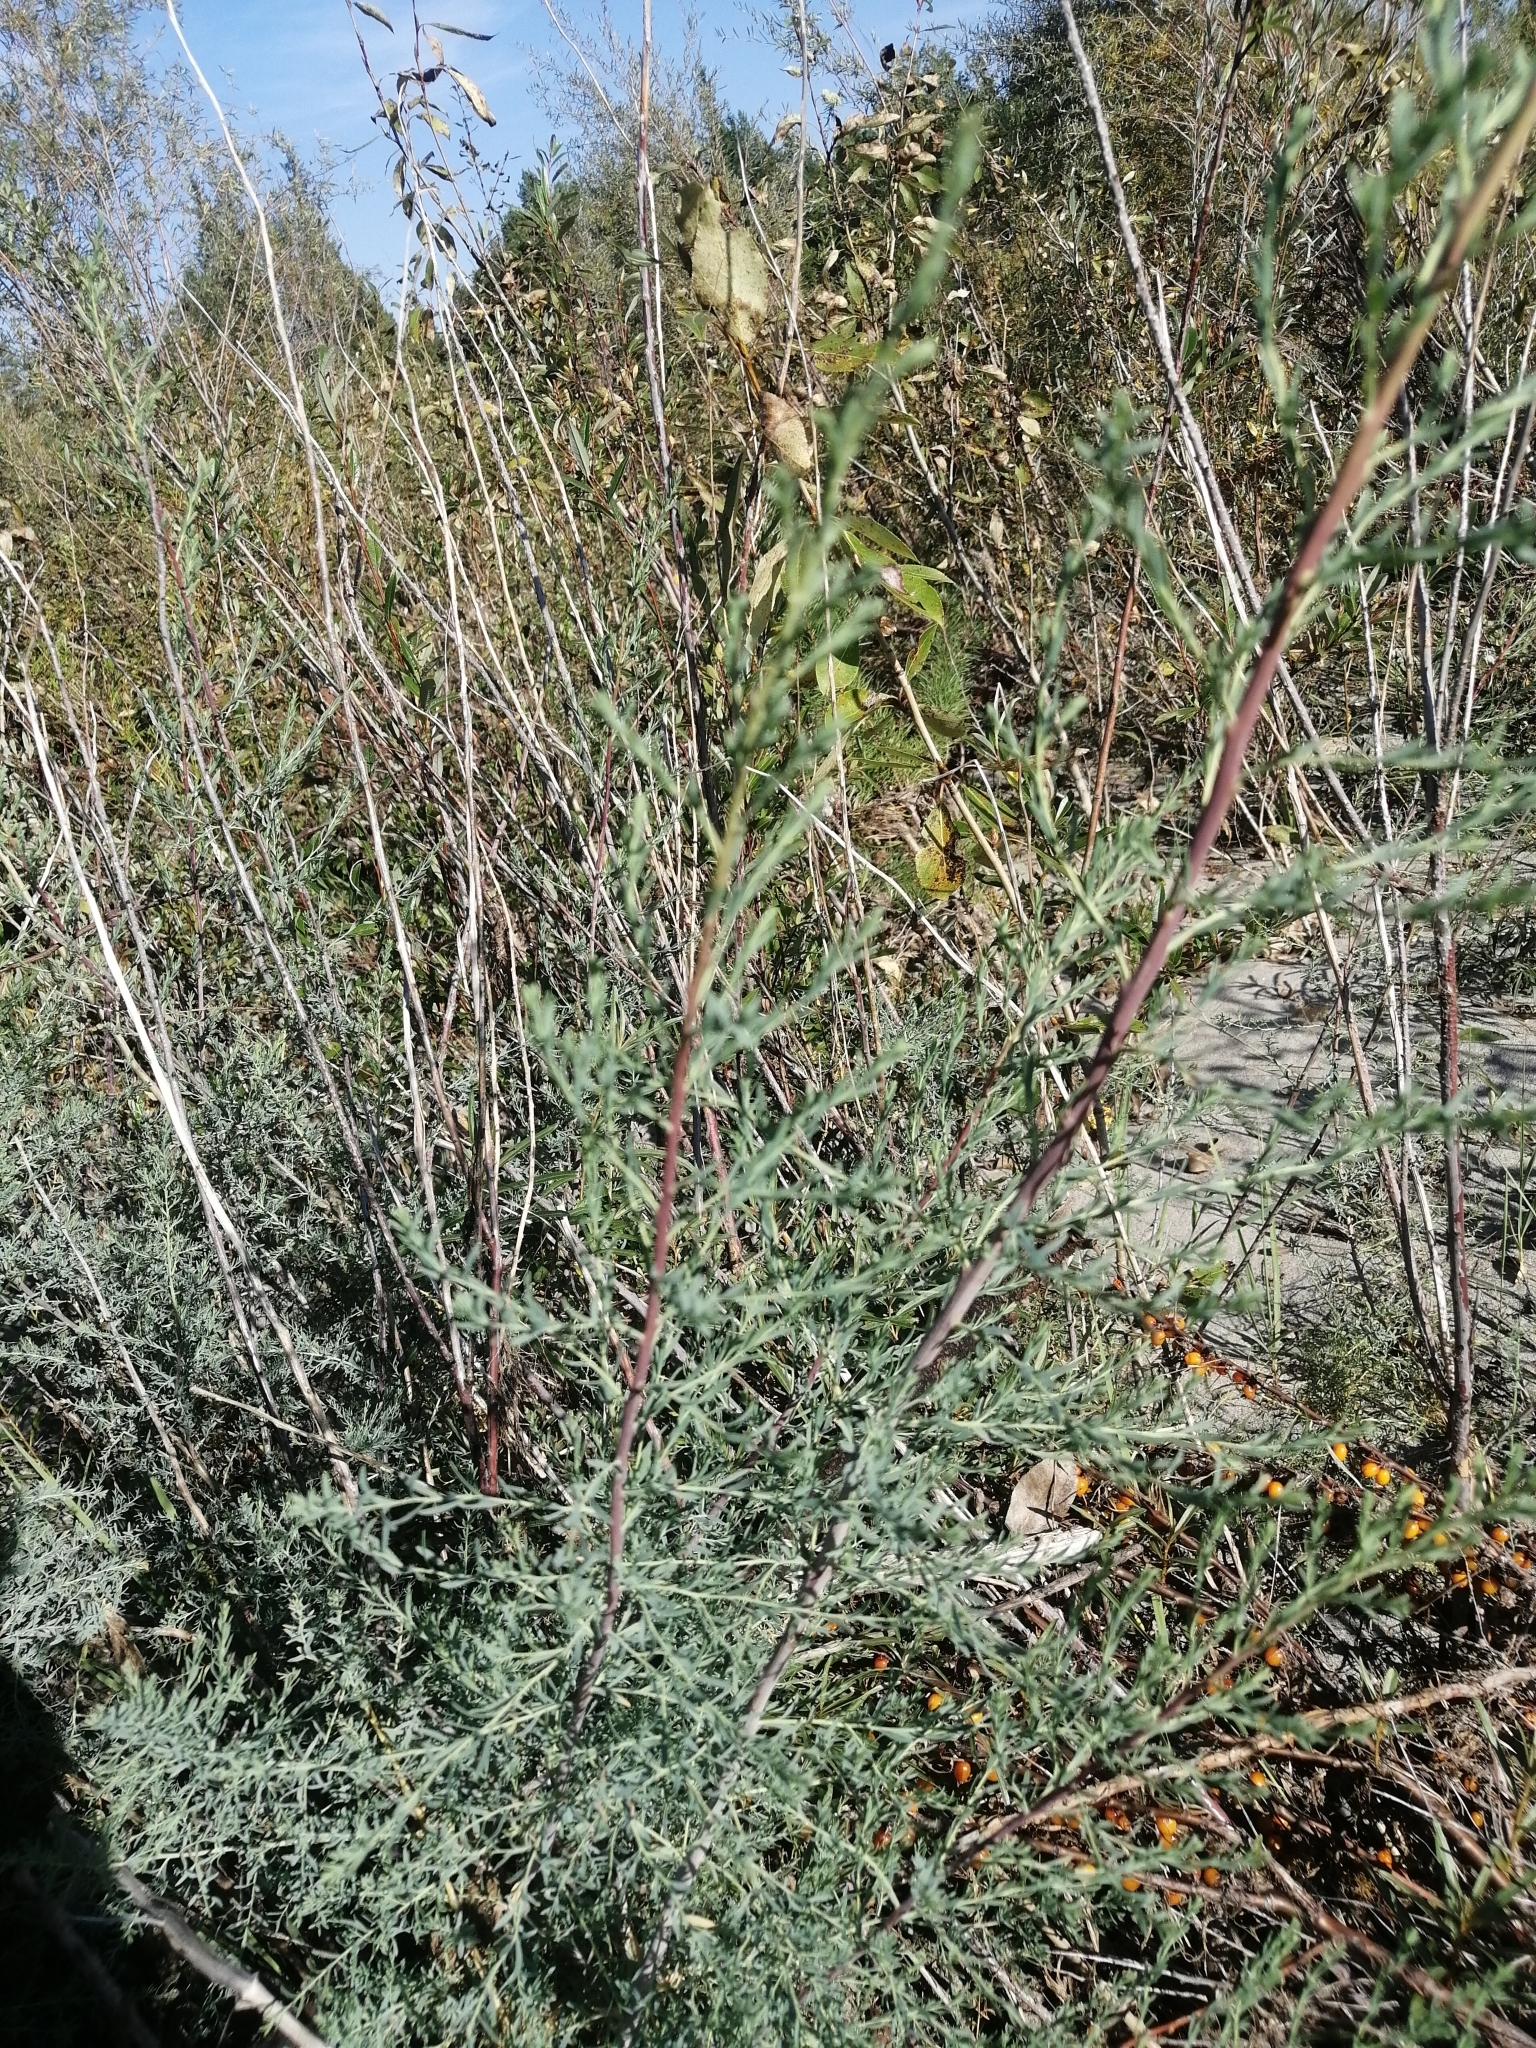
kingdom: Plantae
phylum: Tracheophyta
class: Magnoliopsida
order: Caryophyllales
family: Tamaricaceae
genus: Myricaria
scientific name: Myricaria longifolia
